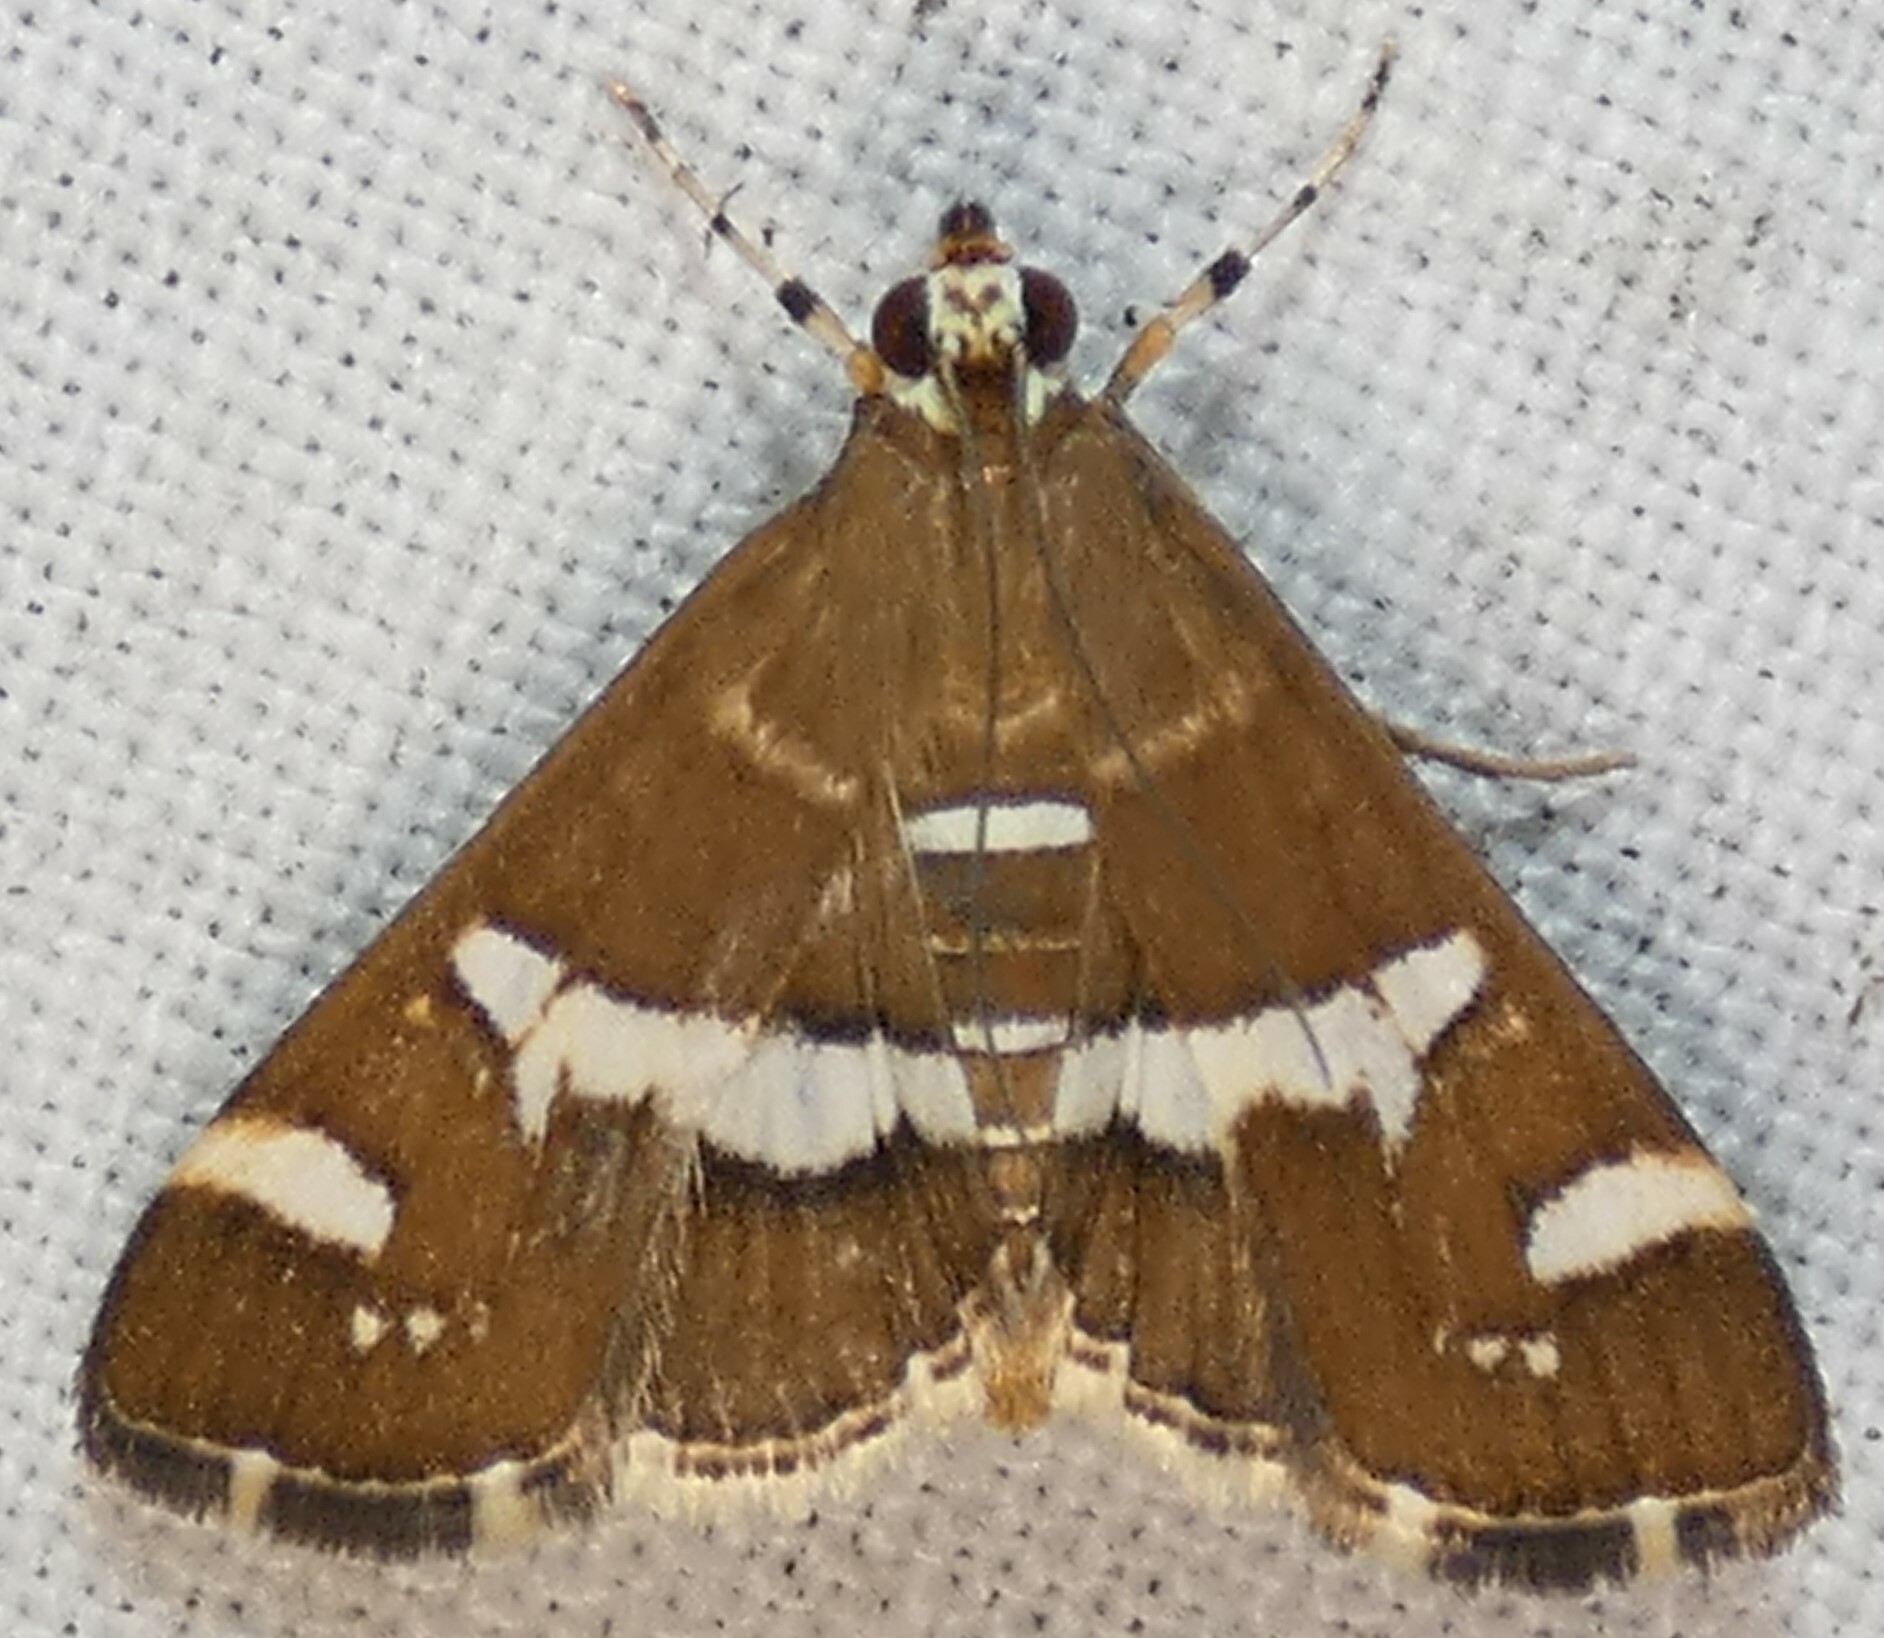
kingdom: Animalia
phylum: Arthropoda
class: Insecta
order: Lepidoptera
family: Crambidae
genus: Spoladea
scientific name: Spoladea recurvalis
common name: Beet webworm moth
